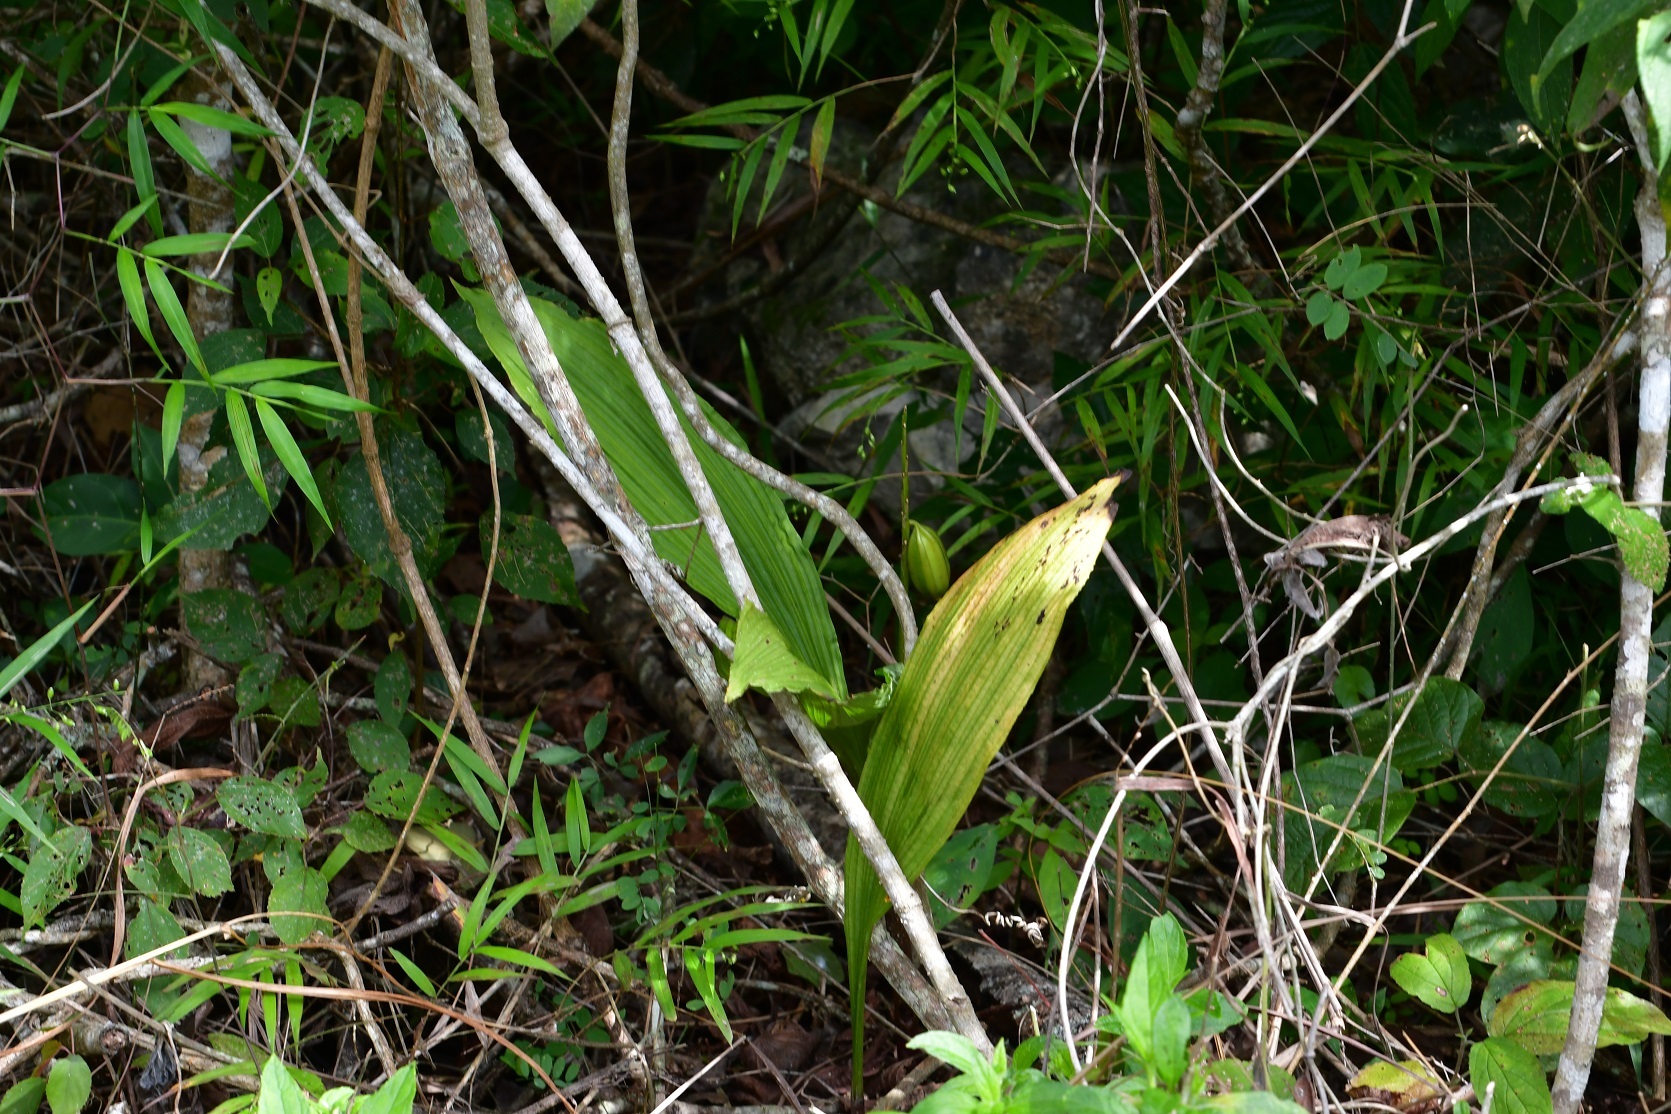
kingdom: Plantae
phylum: Tracheophyta
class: Liliopsida
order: Asparagales
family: Orchidaceae
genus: Govenia
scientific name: Govenia alba
